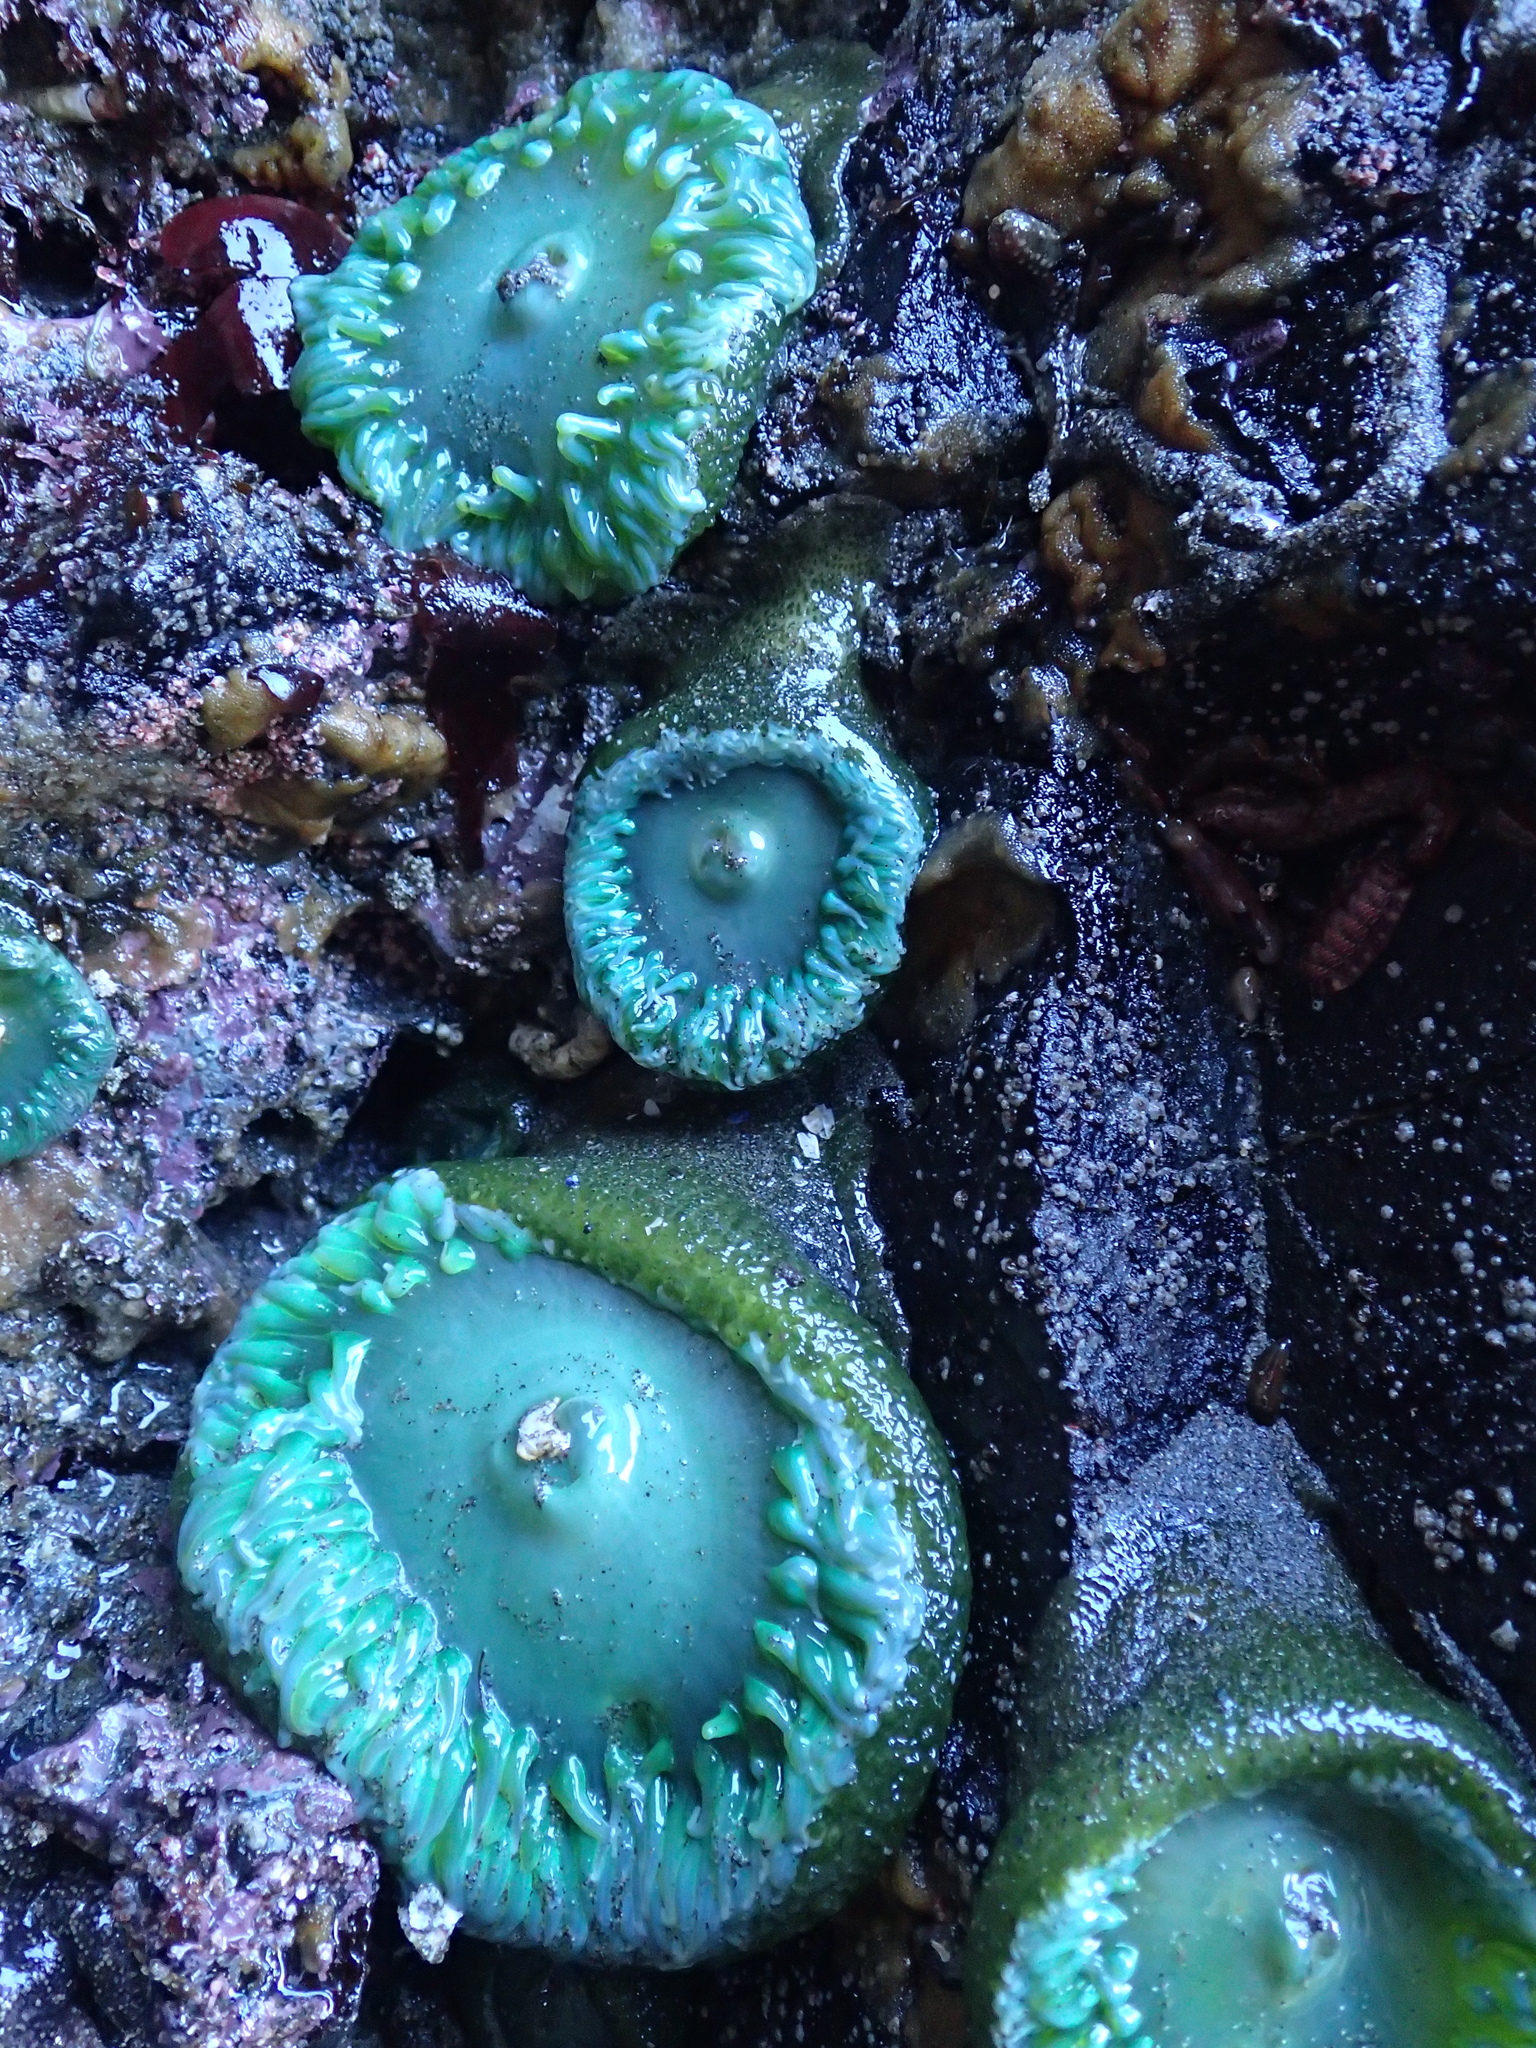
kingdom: Animalia
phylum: Cnidaria
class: Anthozoa
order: Actiniaria
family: Actiniidae
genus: Anthopleura
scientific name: Anthopleura xanthogrammica
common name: Giant green anemone
